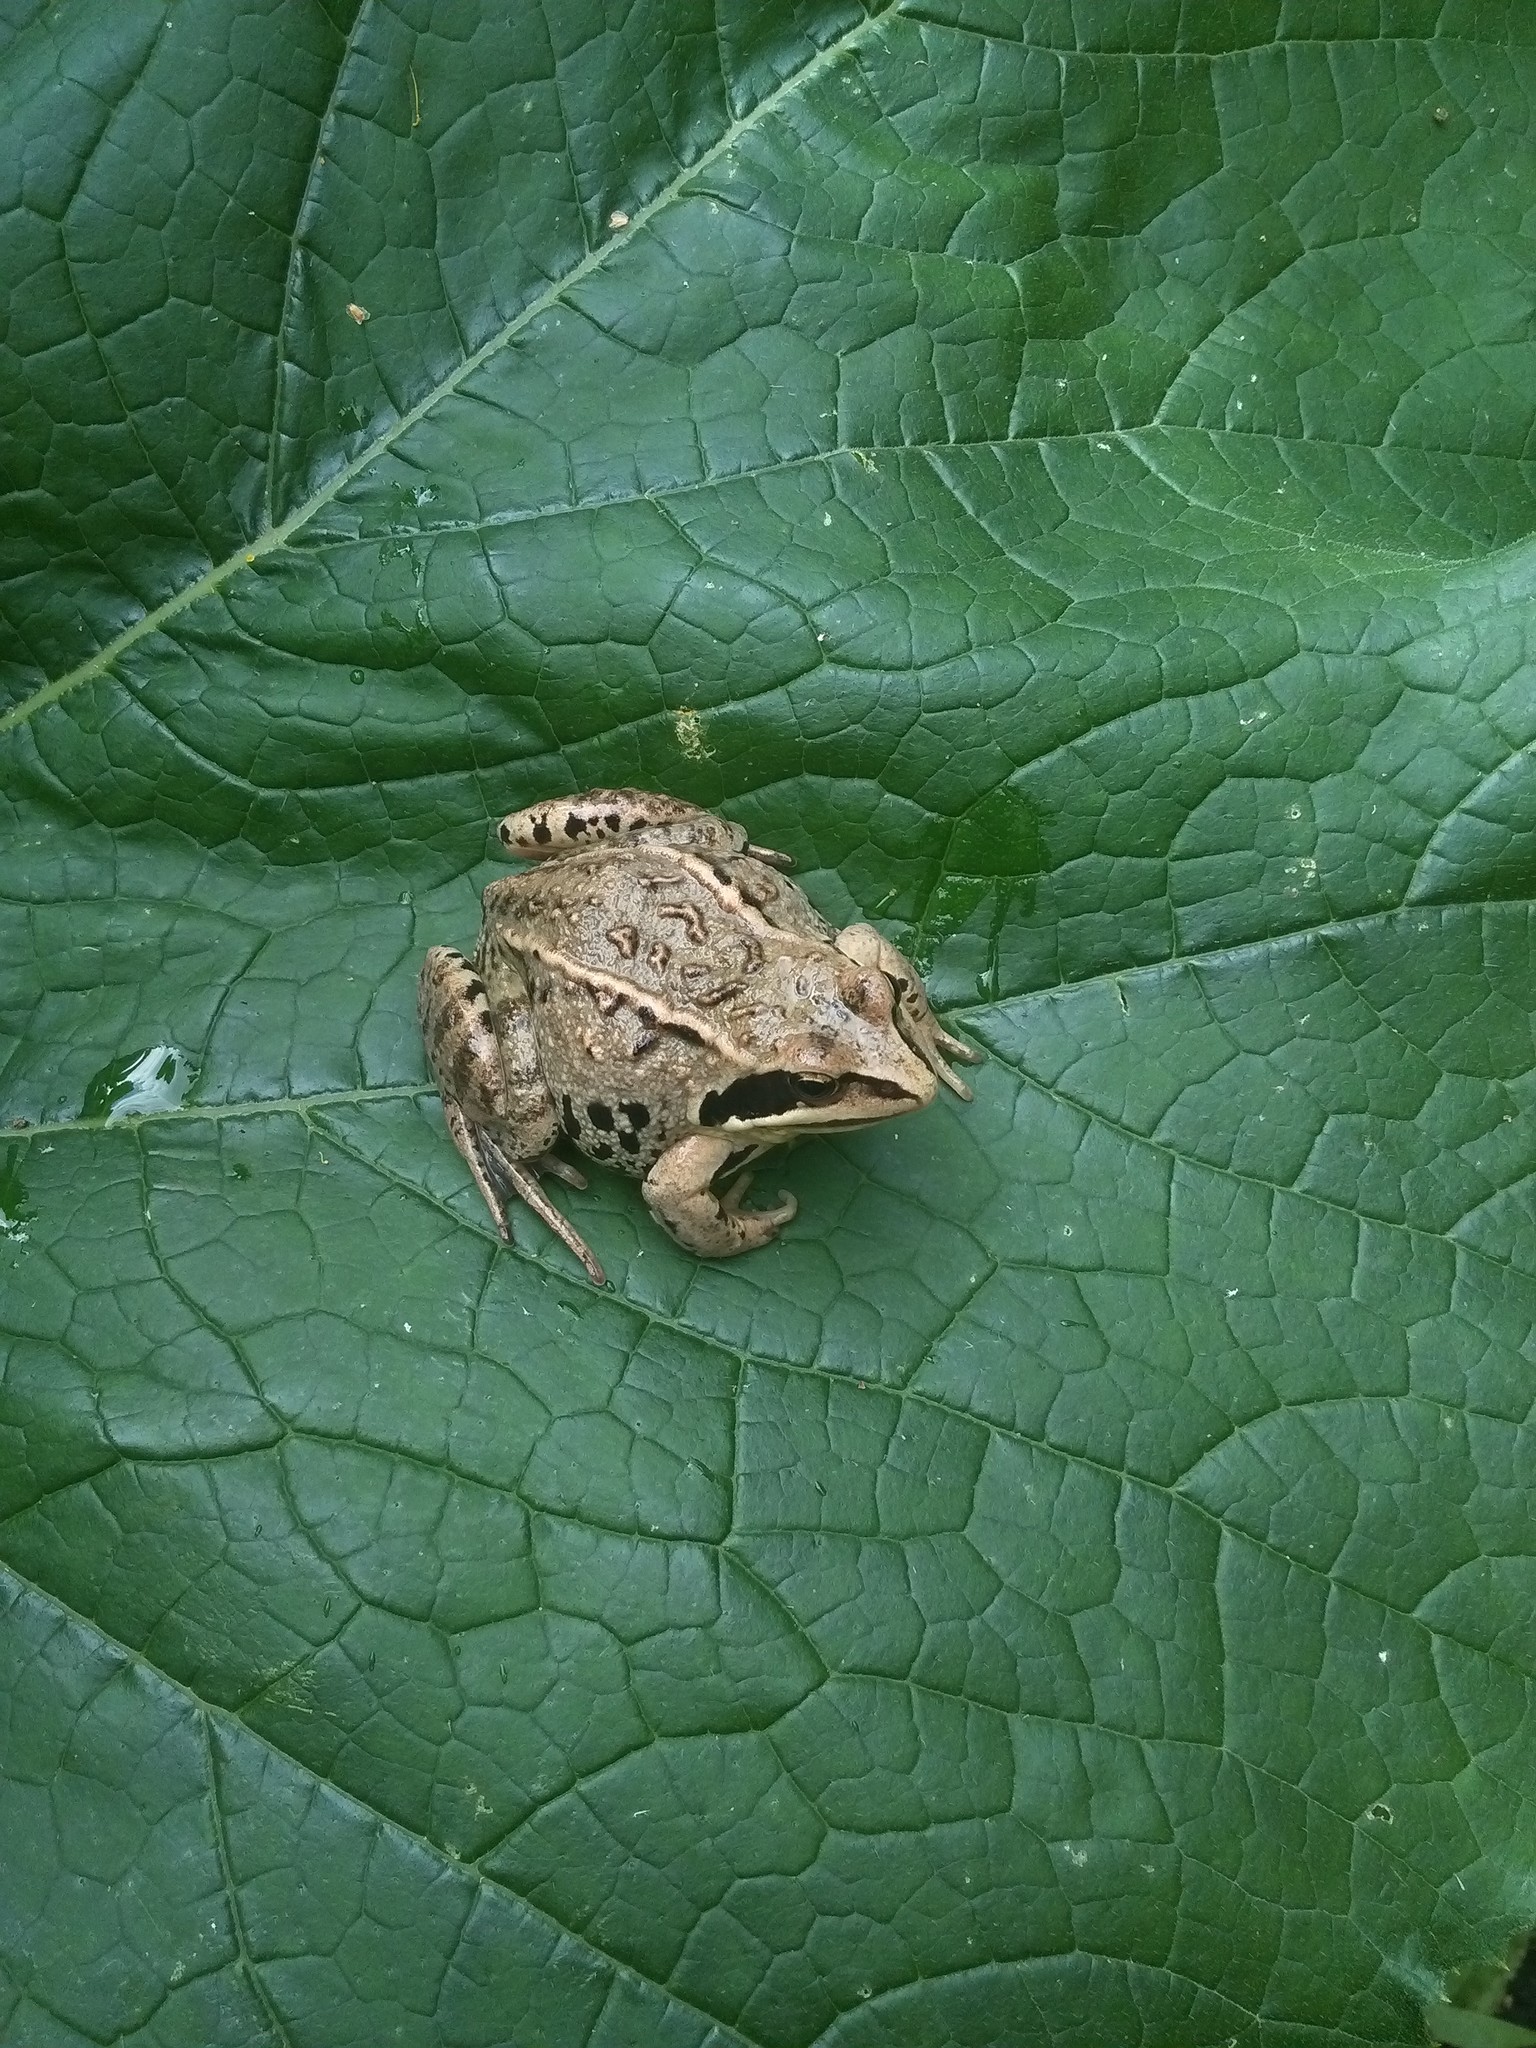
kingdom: Animalia
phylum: Chordata
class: Amphibia
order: Anura
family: Ranidae
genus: Rana
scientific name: Rana arvalis
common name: Moor frog
